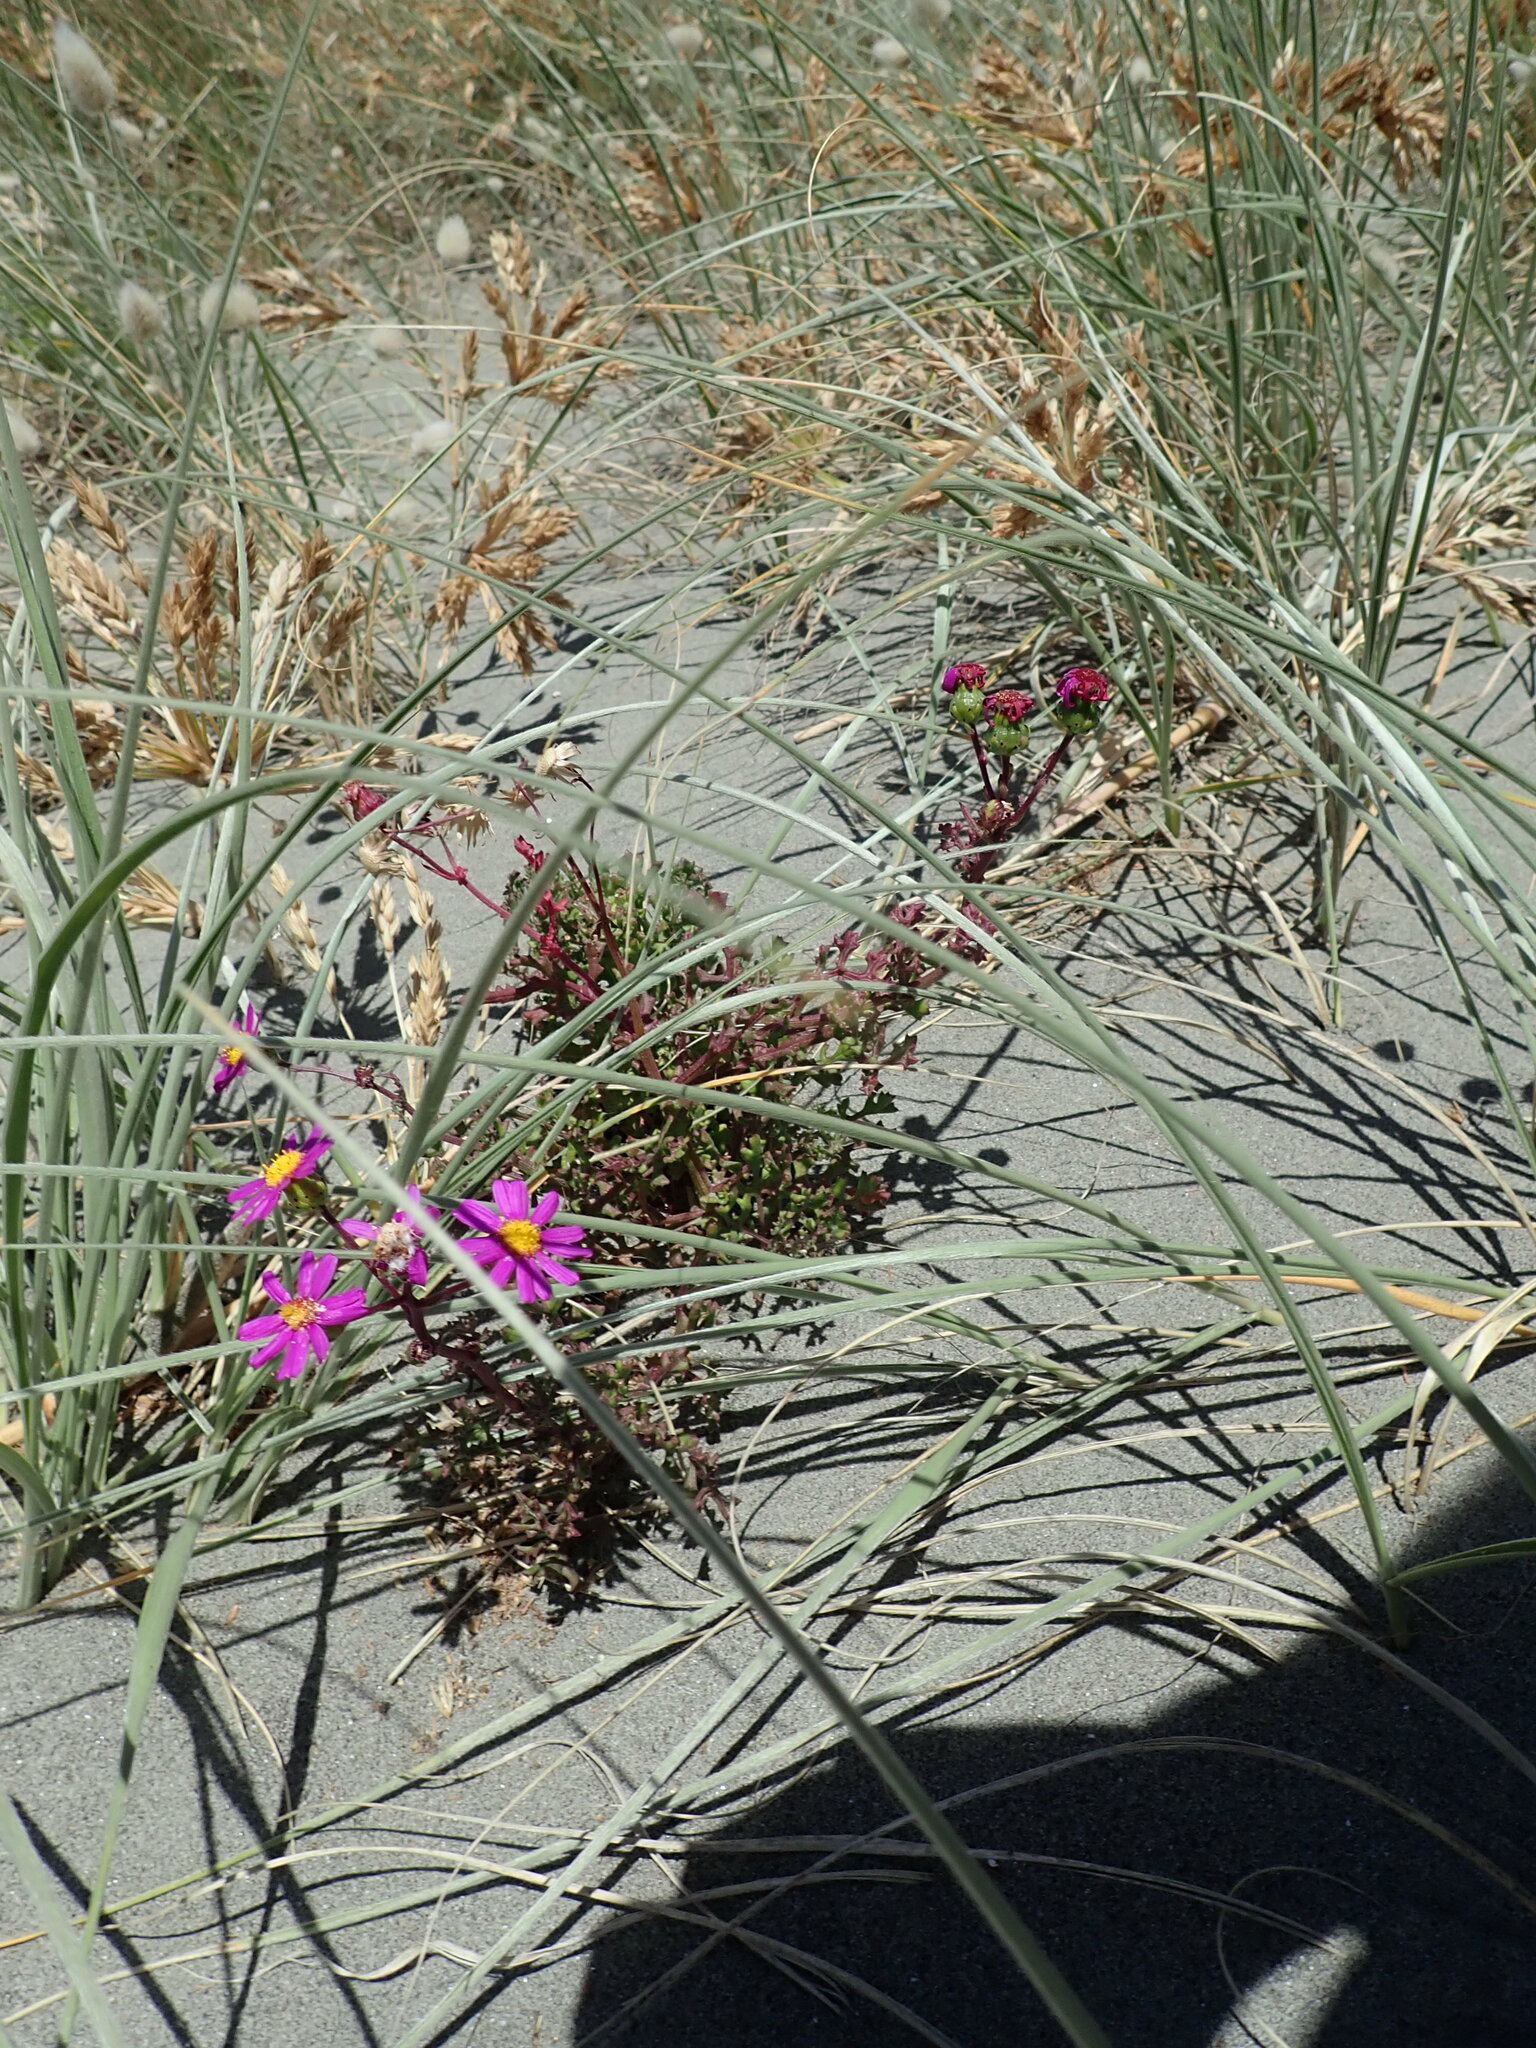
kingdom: Plantae
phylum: Tracheophyta
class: Magnoliopsida
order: Asterales
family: Asteraceae
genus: Senecio
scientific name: Senecio elegans
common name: Purple groundsel
